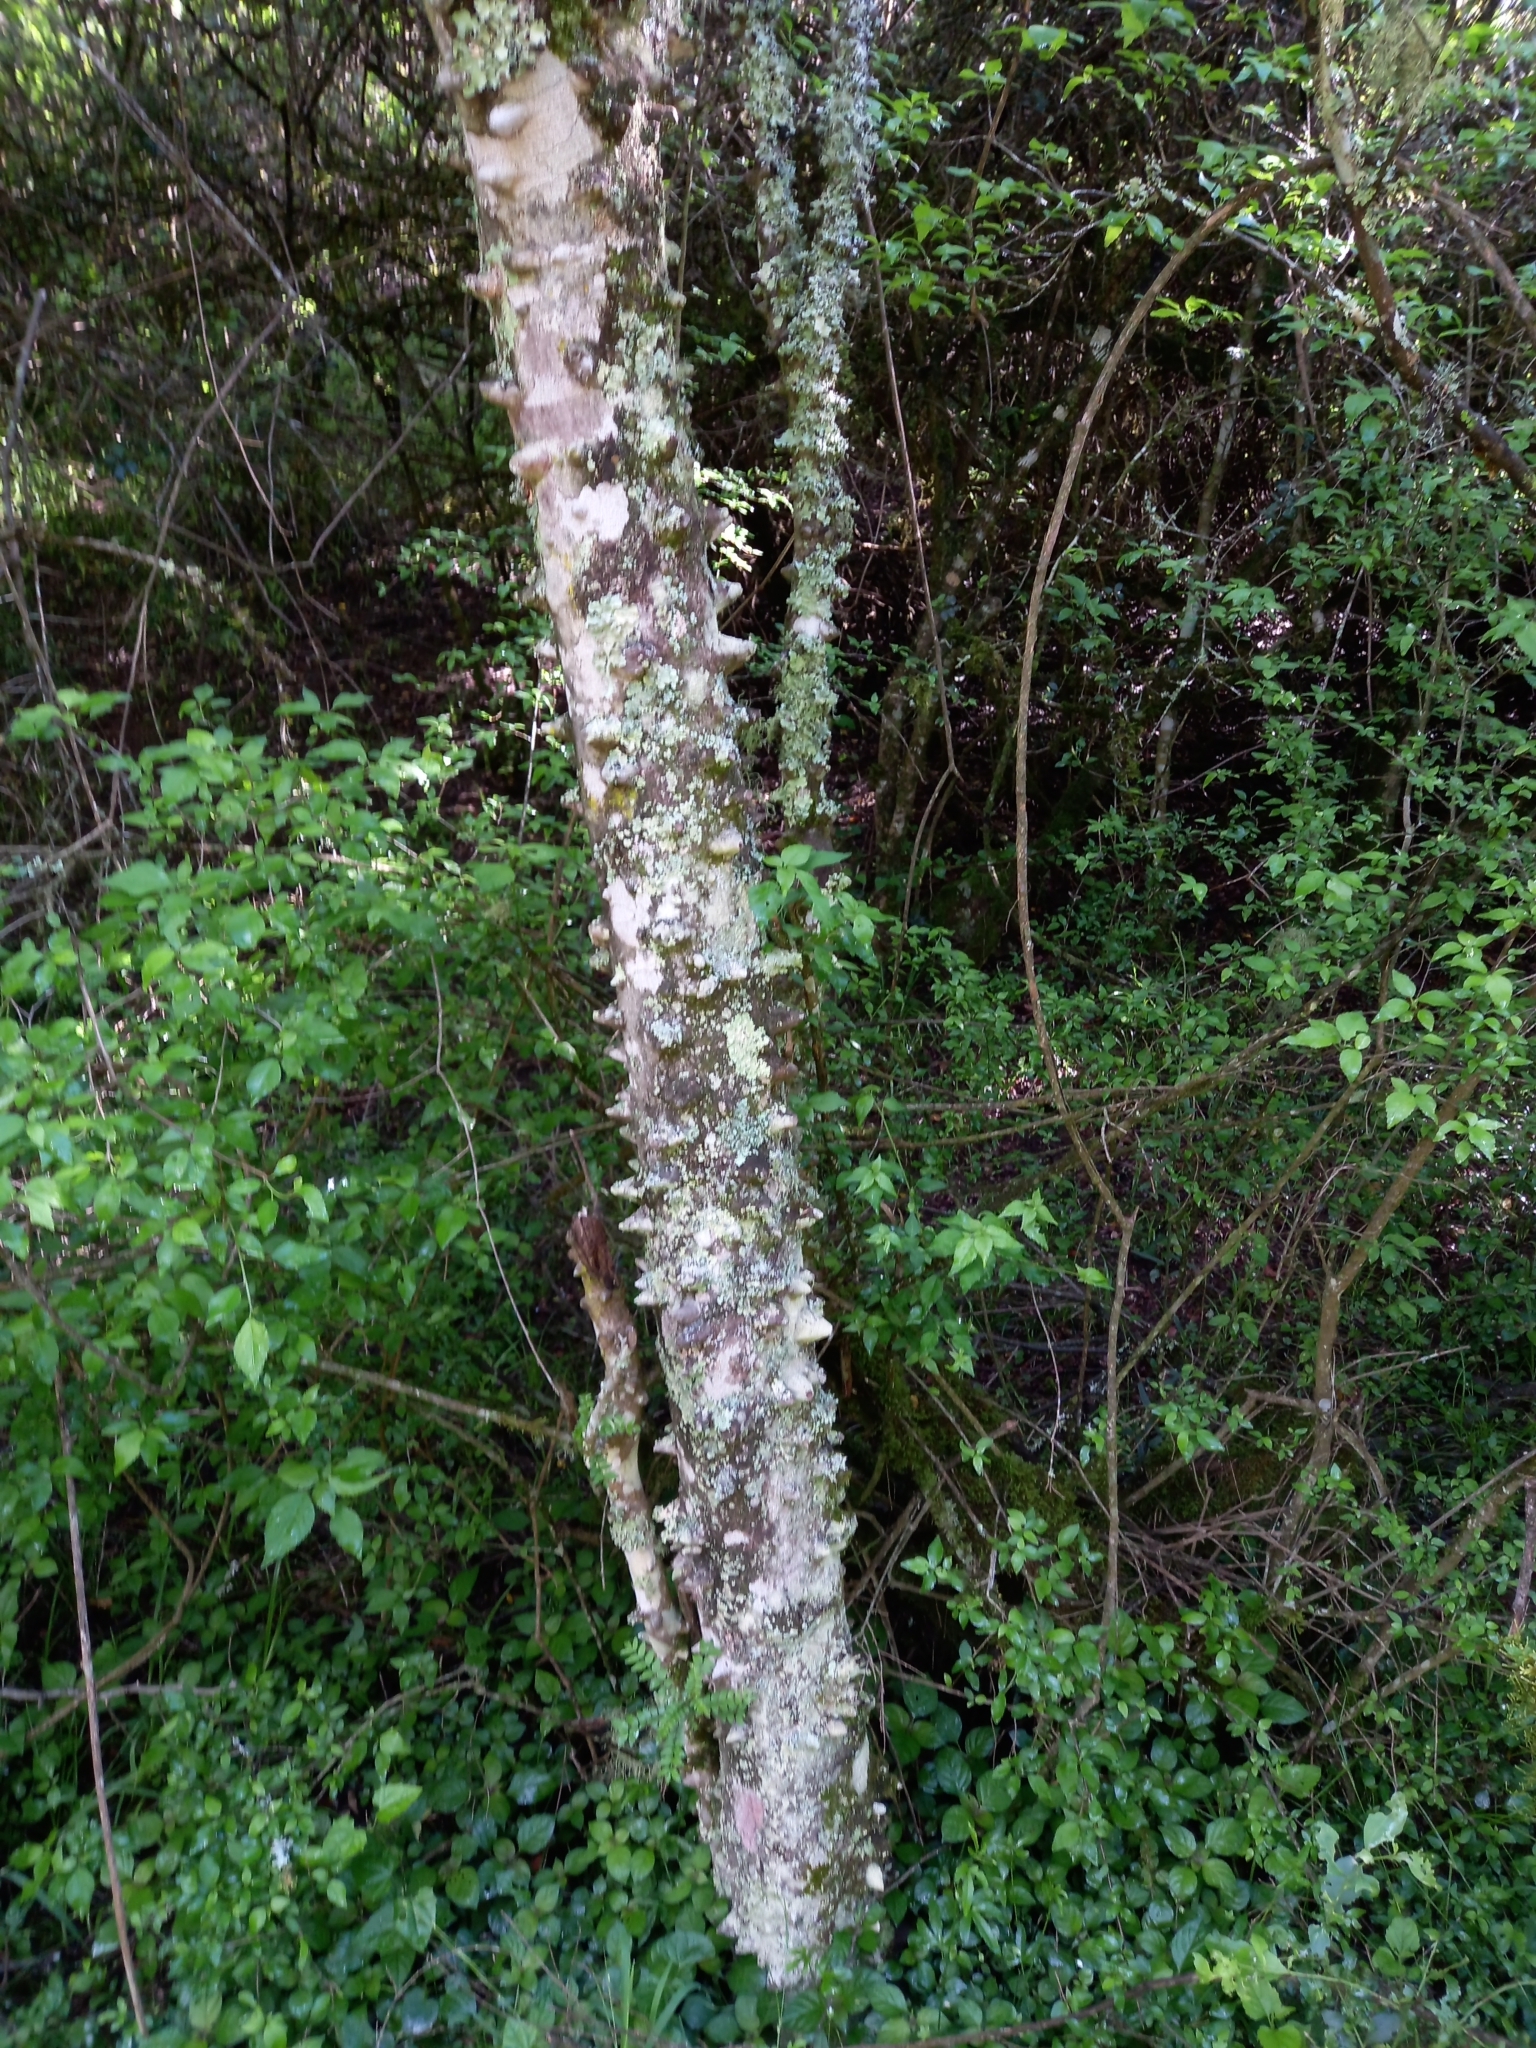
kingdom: Plantae
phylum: Tracheophyta
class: Magnoliopsida
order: Sapindales
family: Rutaceae
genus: Zanthoxylum
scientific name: Zanthoxylum capense
